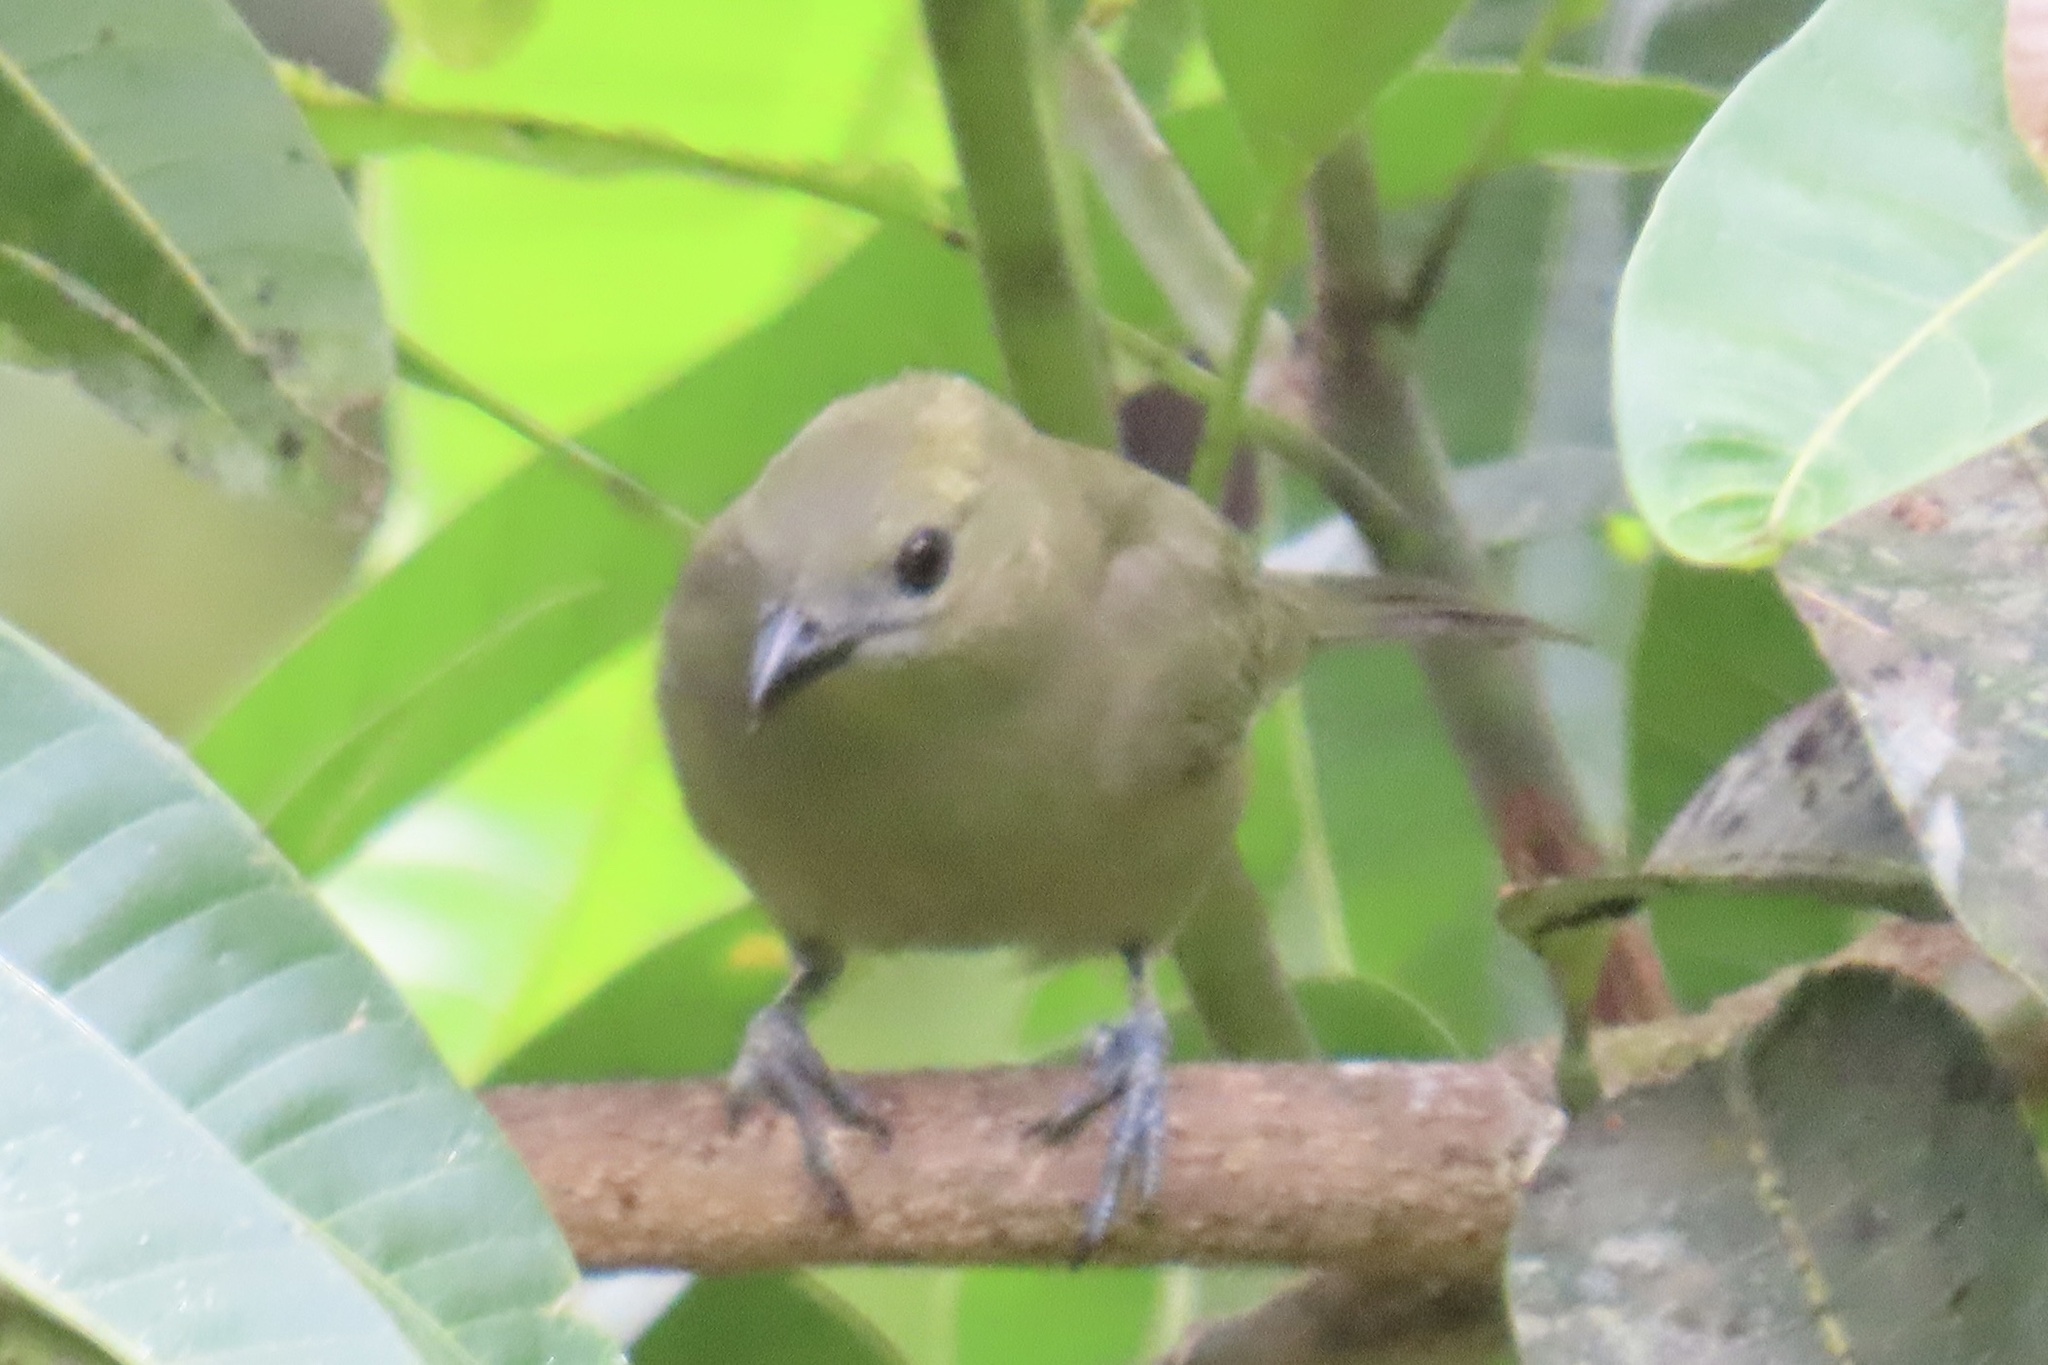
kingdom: Animalia
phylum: Chordata
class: Aves
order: Passeriformes
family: Thraupidae
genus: Thraupis
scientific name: Thraupis palmarum
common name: Palm tanager
